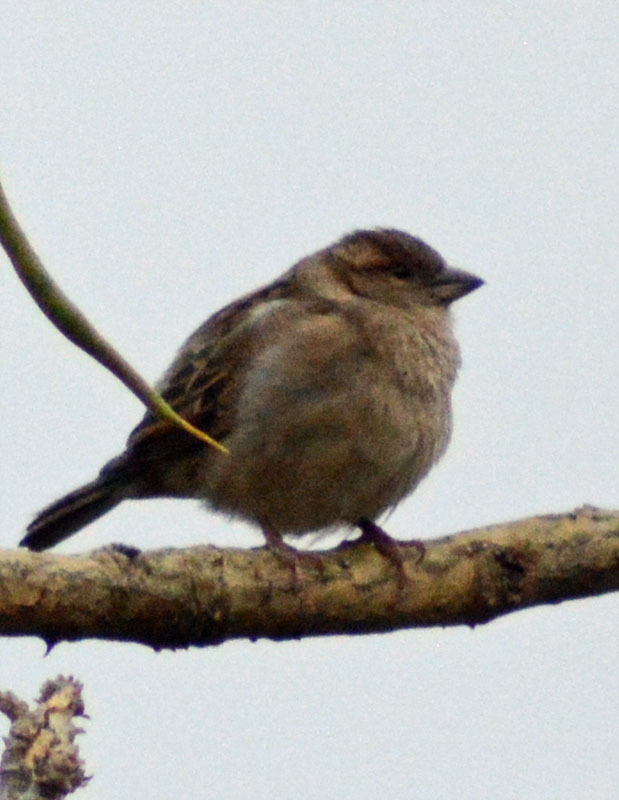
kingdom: Animalia
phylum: Chordata
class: Aves
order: Passeriformes
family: Passeridae
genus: Passer
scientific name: Passer domesticus
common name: House sparrow
